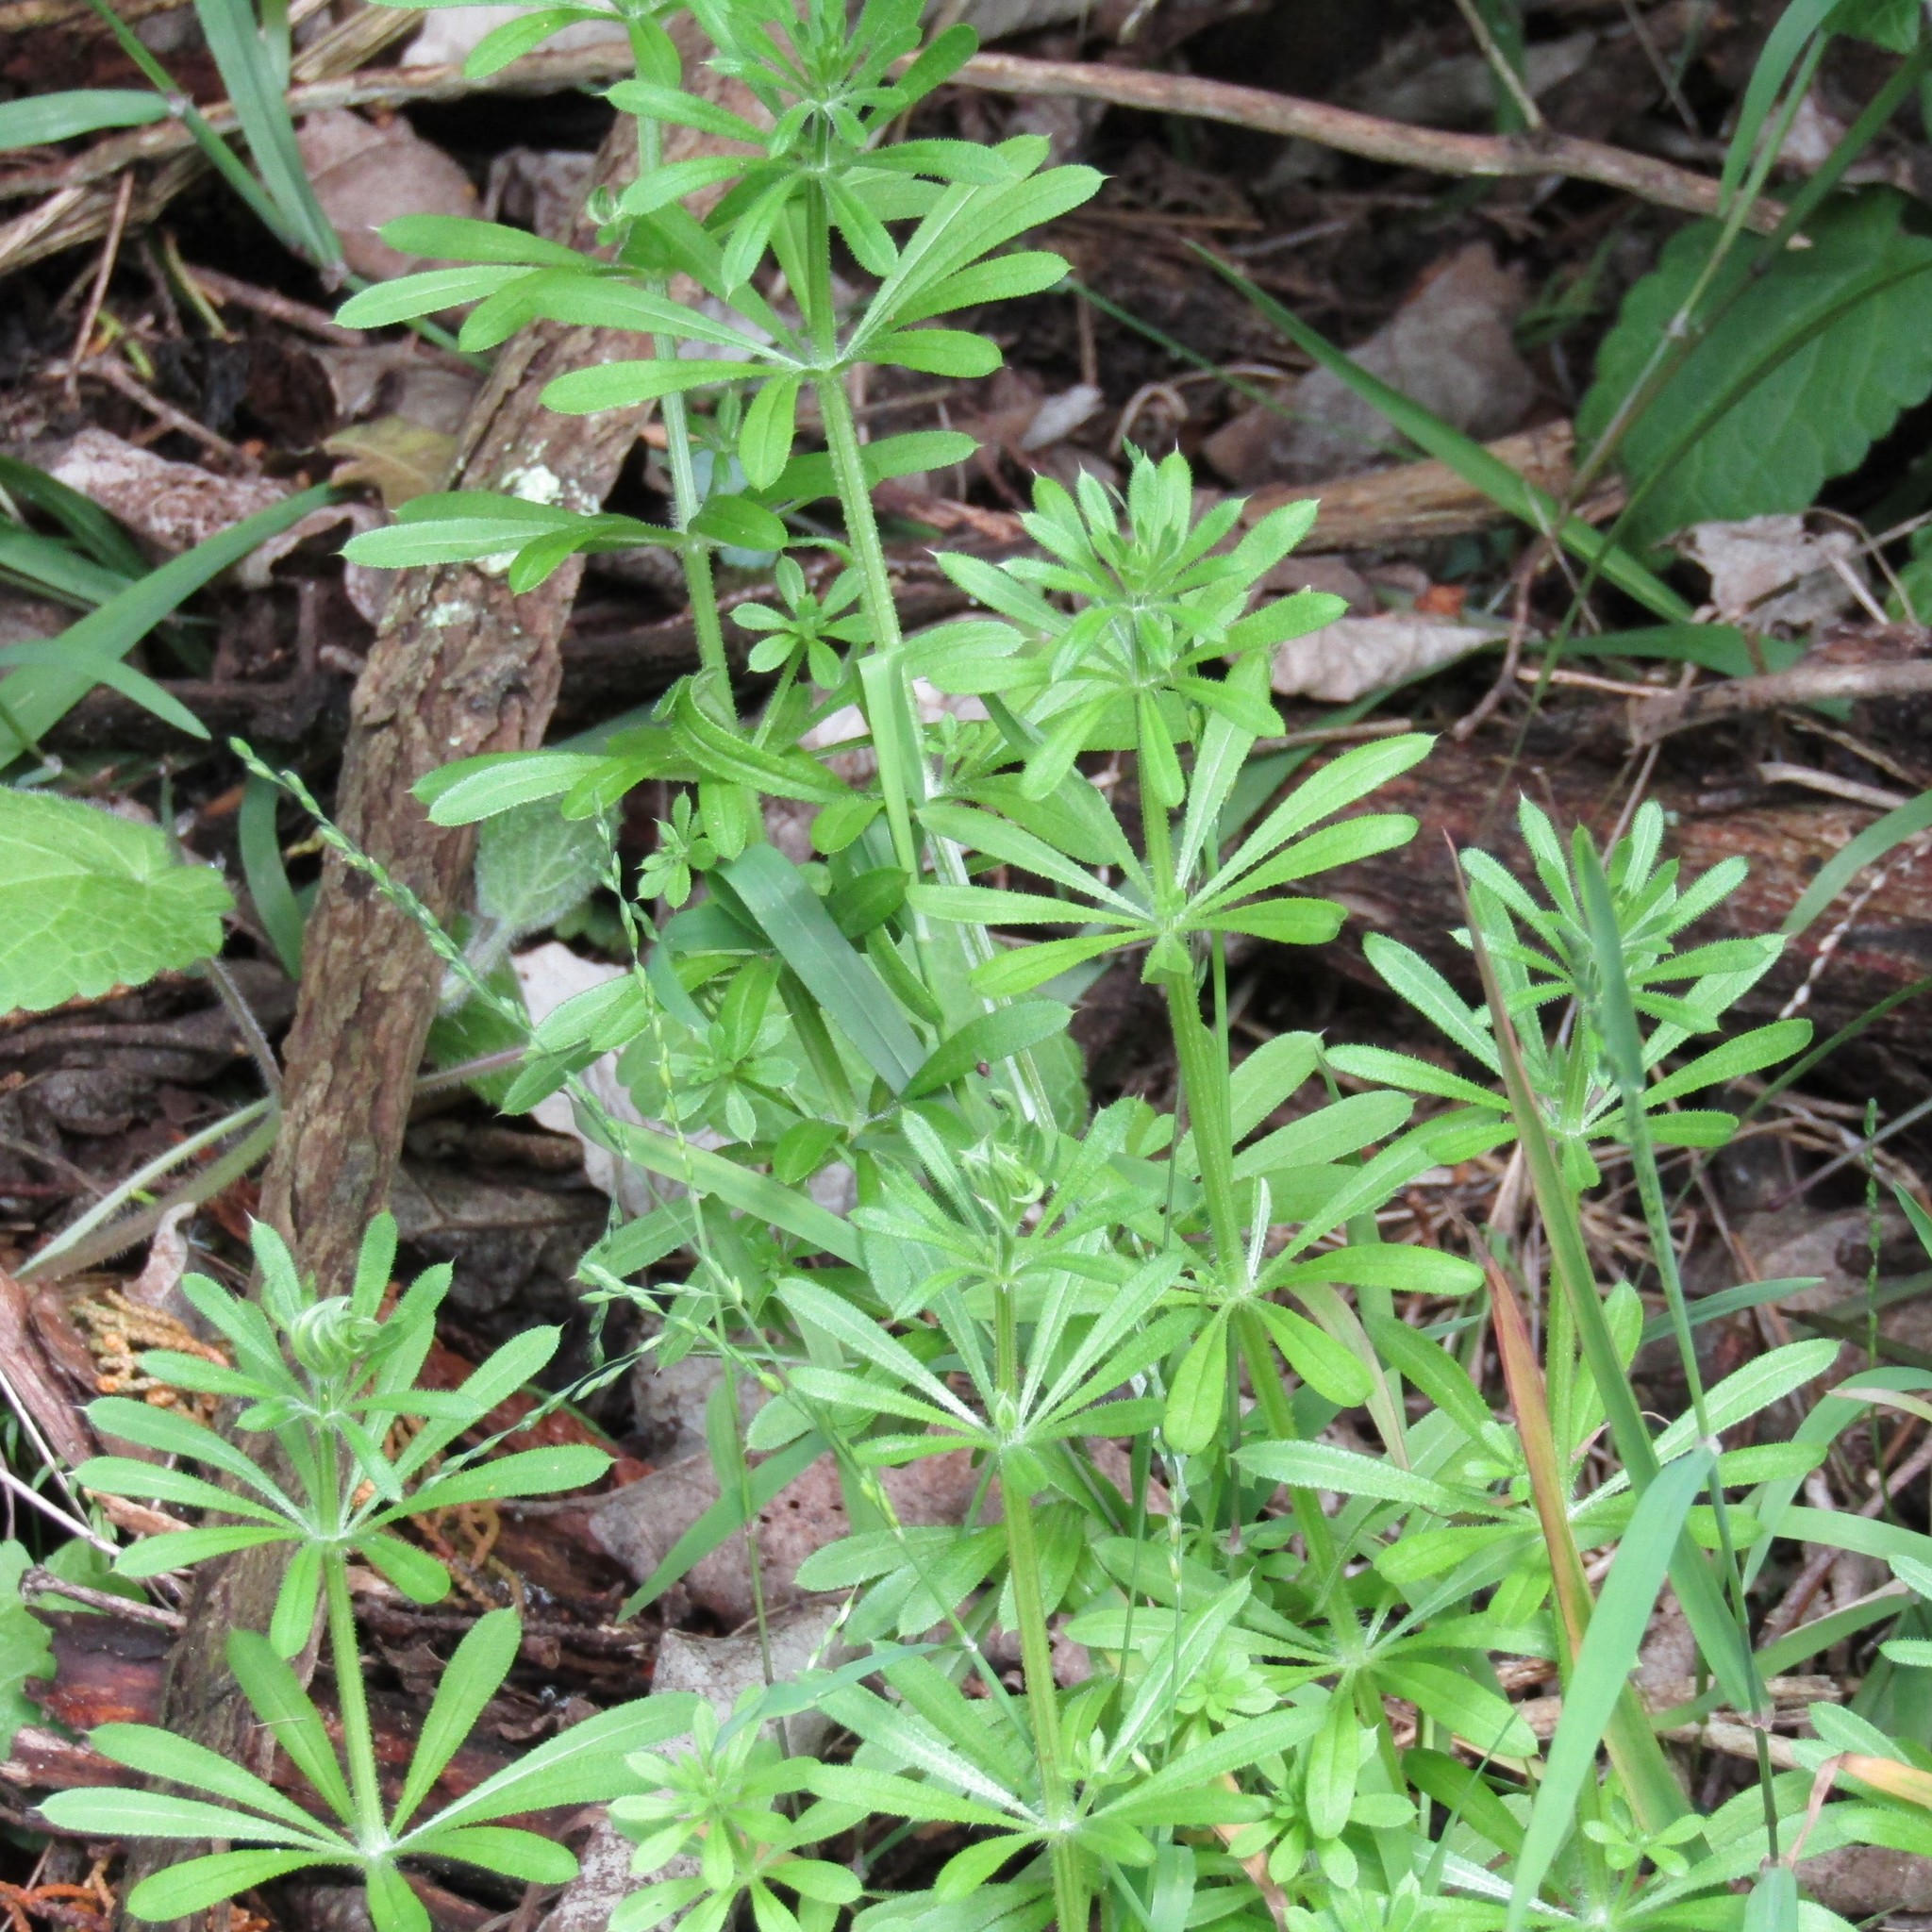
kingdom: Plantae
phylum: Tracheophyta
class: Magnoliopsida
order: Gentianales
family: Rubiaceae
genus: Galium
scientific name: Galium aparine
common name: Cleavers
